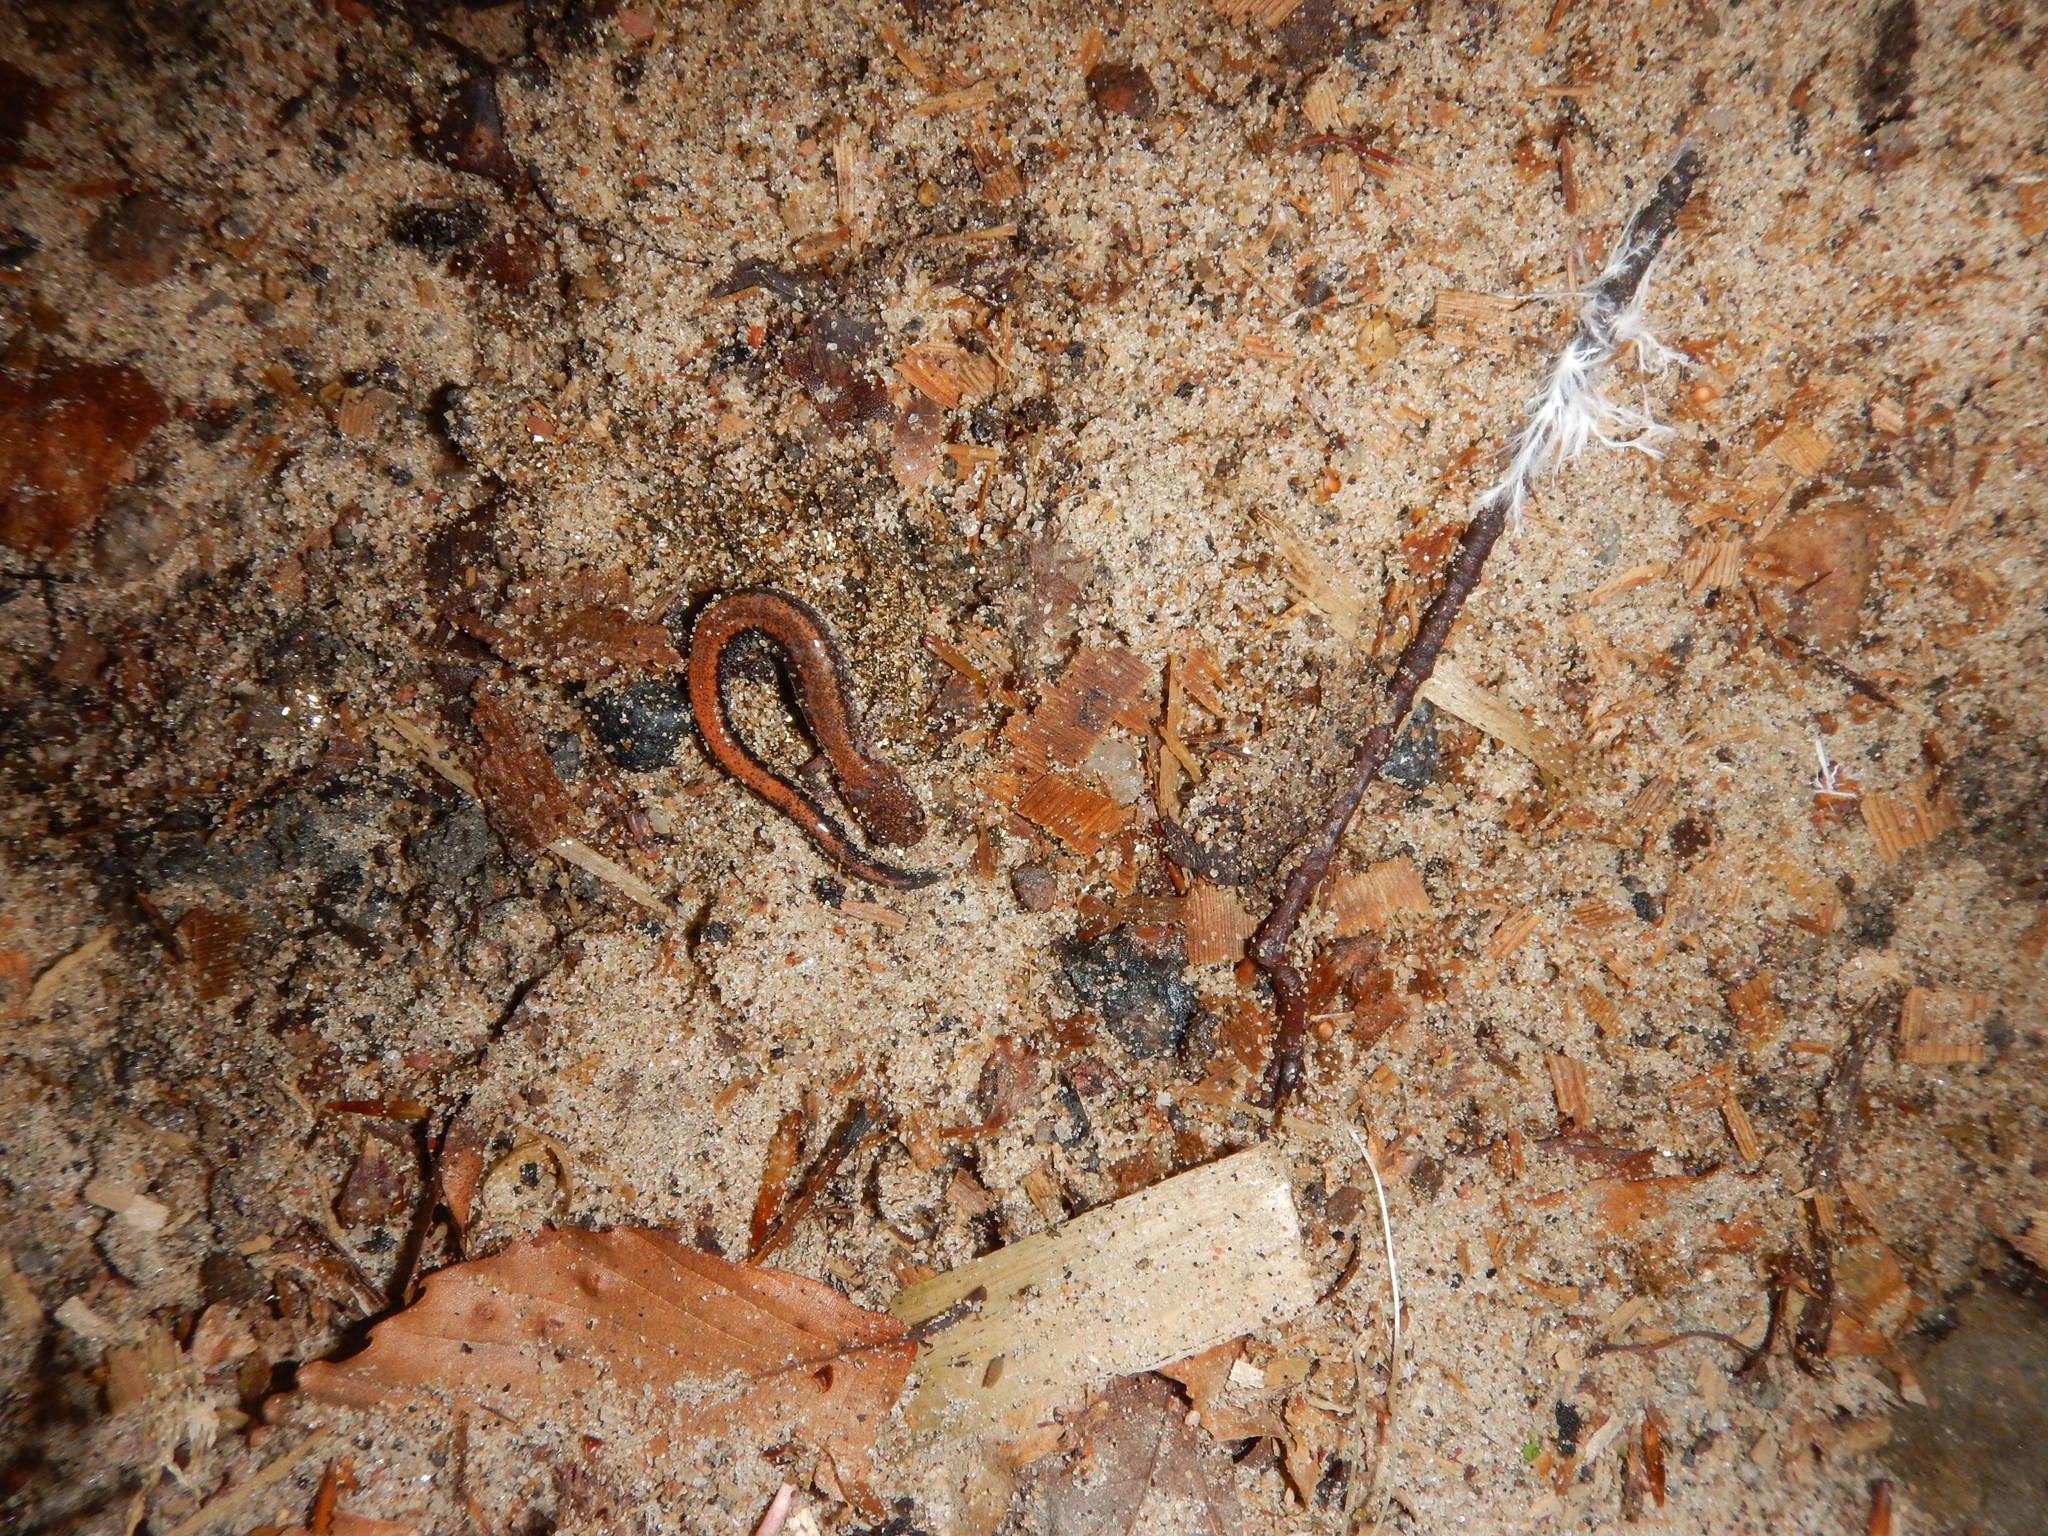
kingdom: Animalia
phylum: Chordata
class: Amphibia
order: Caudata
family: Plethodontidae
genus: Plethodon
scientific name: Plethodon cinereus
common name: Redback salamander
